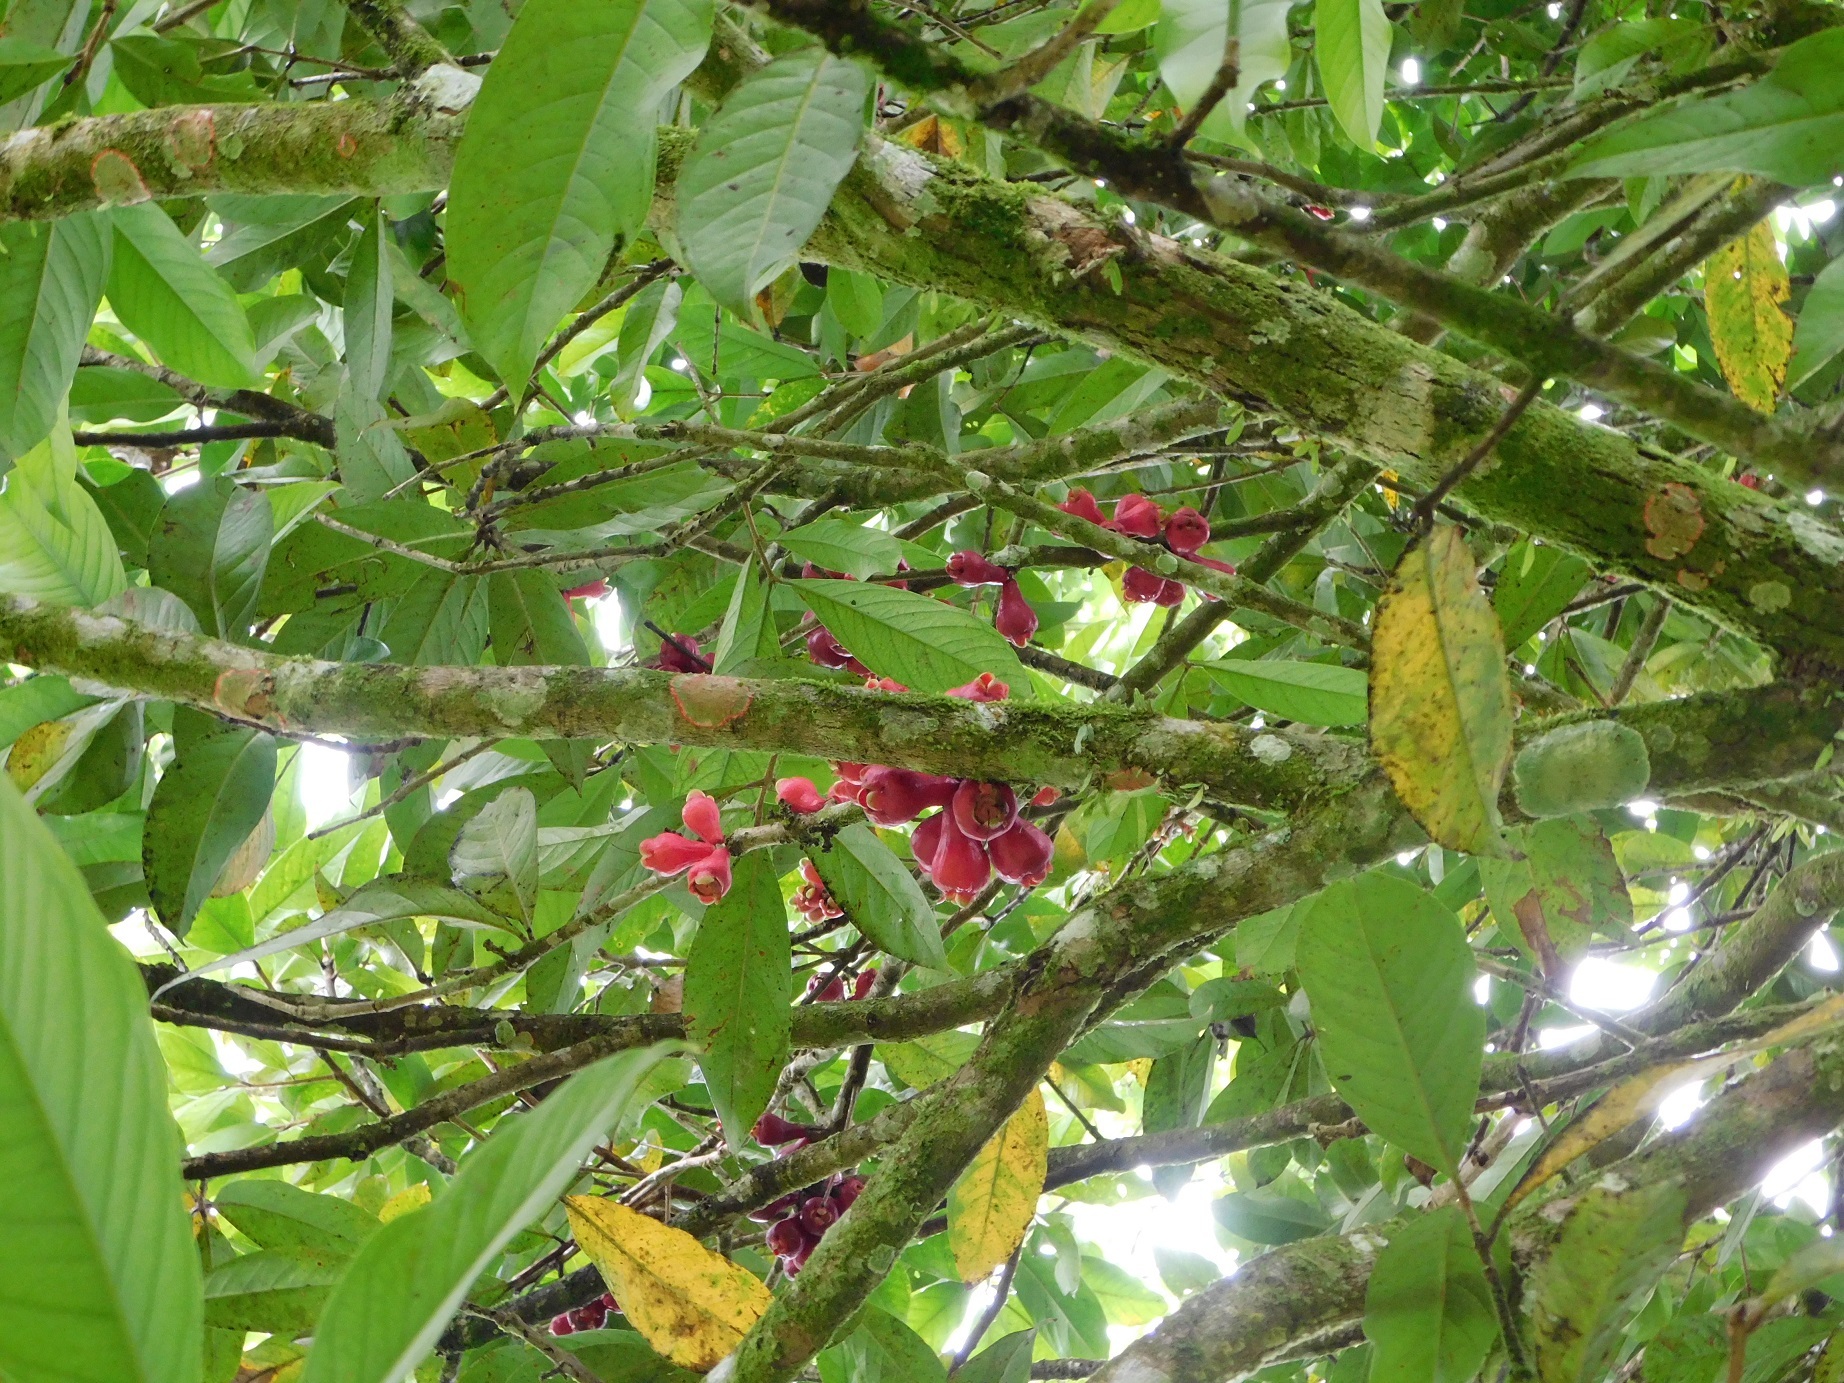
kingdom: Plantae
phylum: Tracheophyta
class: Magnoliopsida
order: Myrtales
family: Myrtaceae
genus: Syzygium
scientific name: Syzygium malaccense
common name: Malaysian apple
